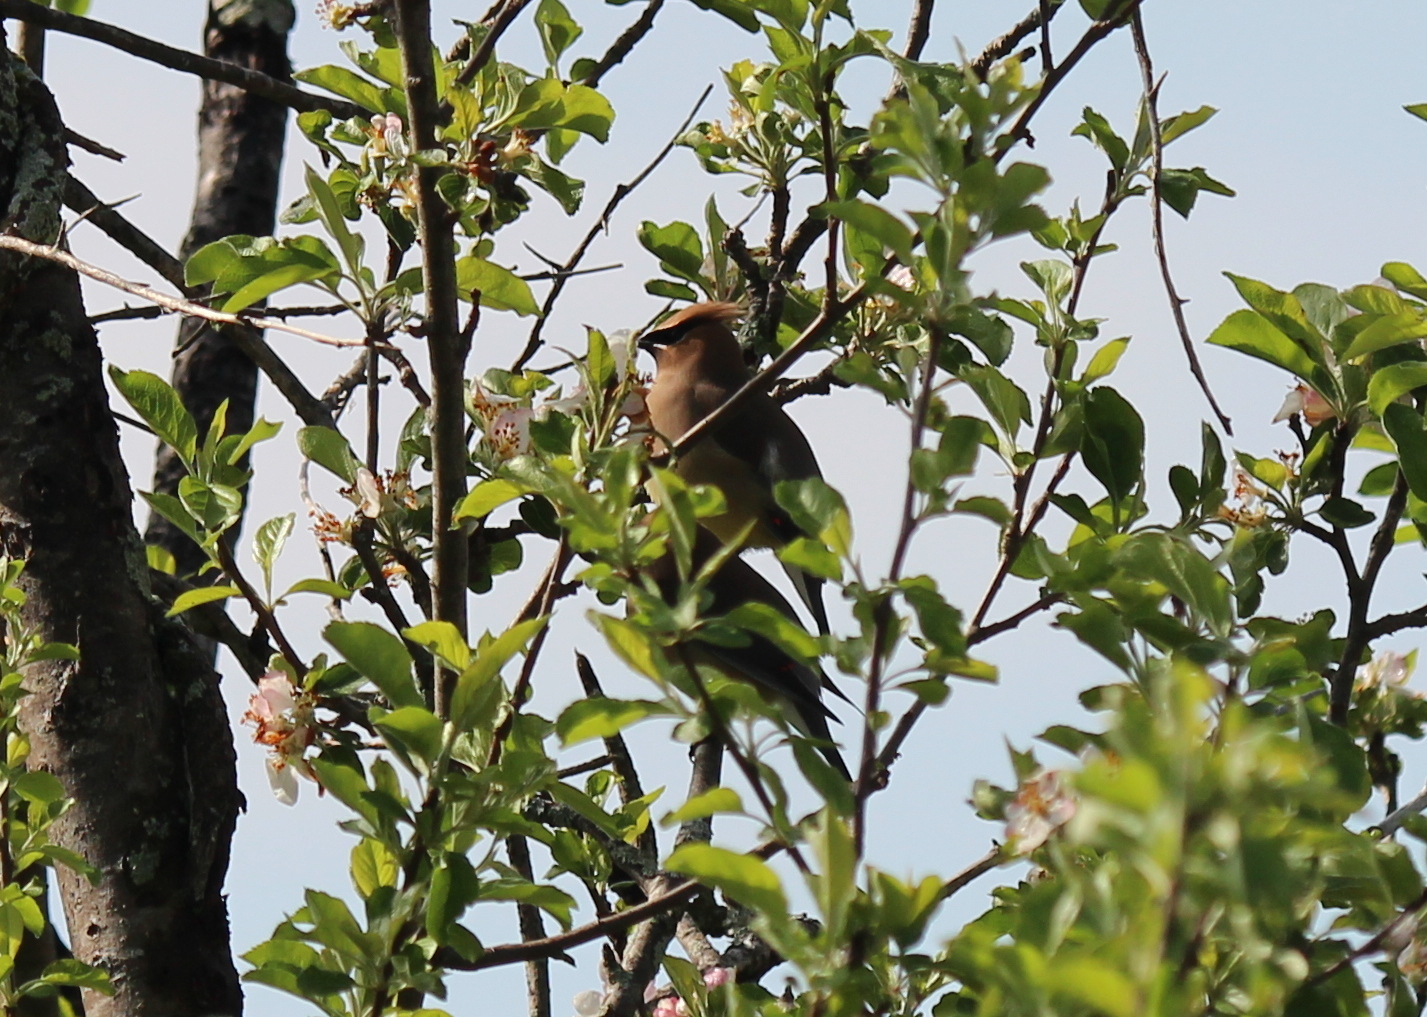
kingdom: Animalia
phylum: Chordata
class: Aves
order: Passeriformes
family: Bombycillidae
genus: Bombycilla
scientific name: Bombycilla cedrorum
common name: Cedar waxwing
